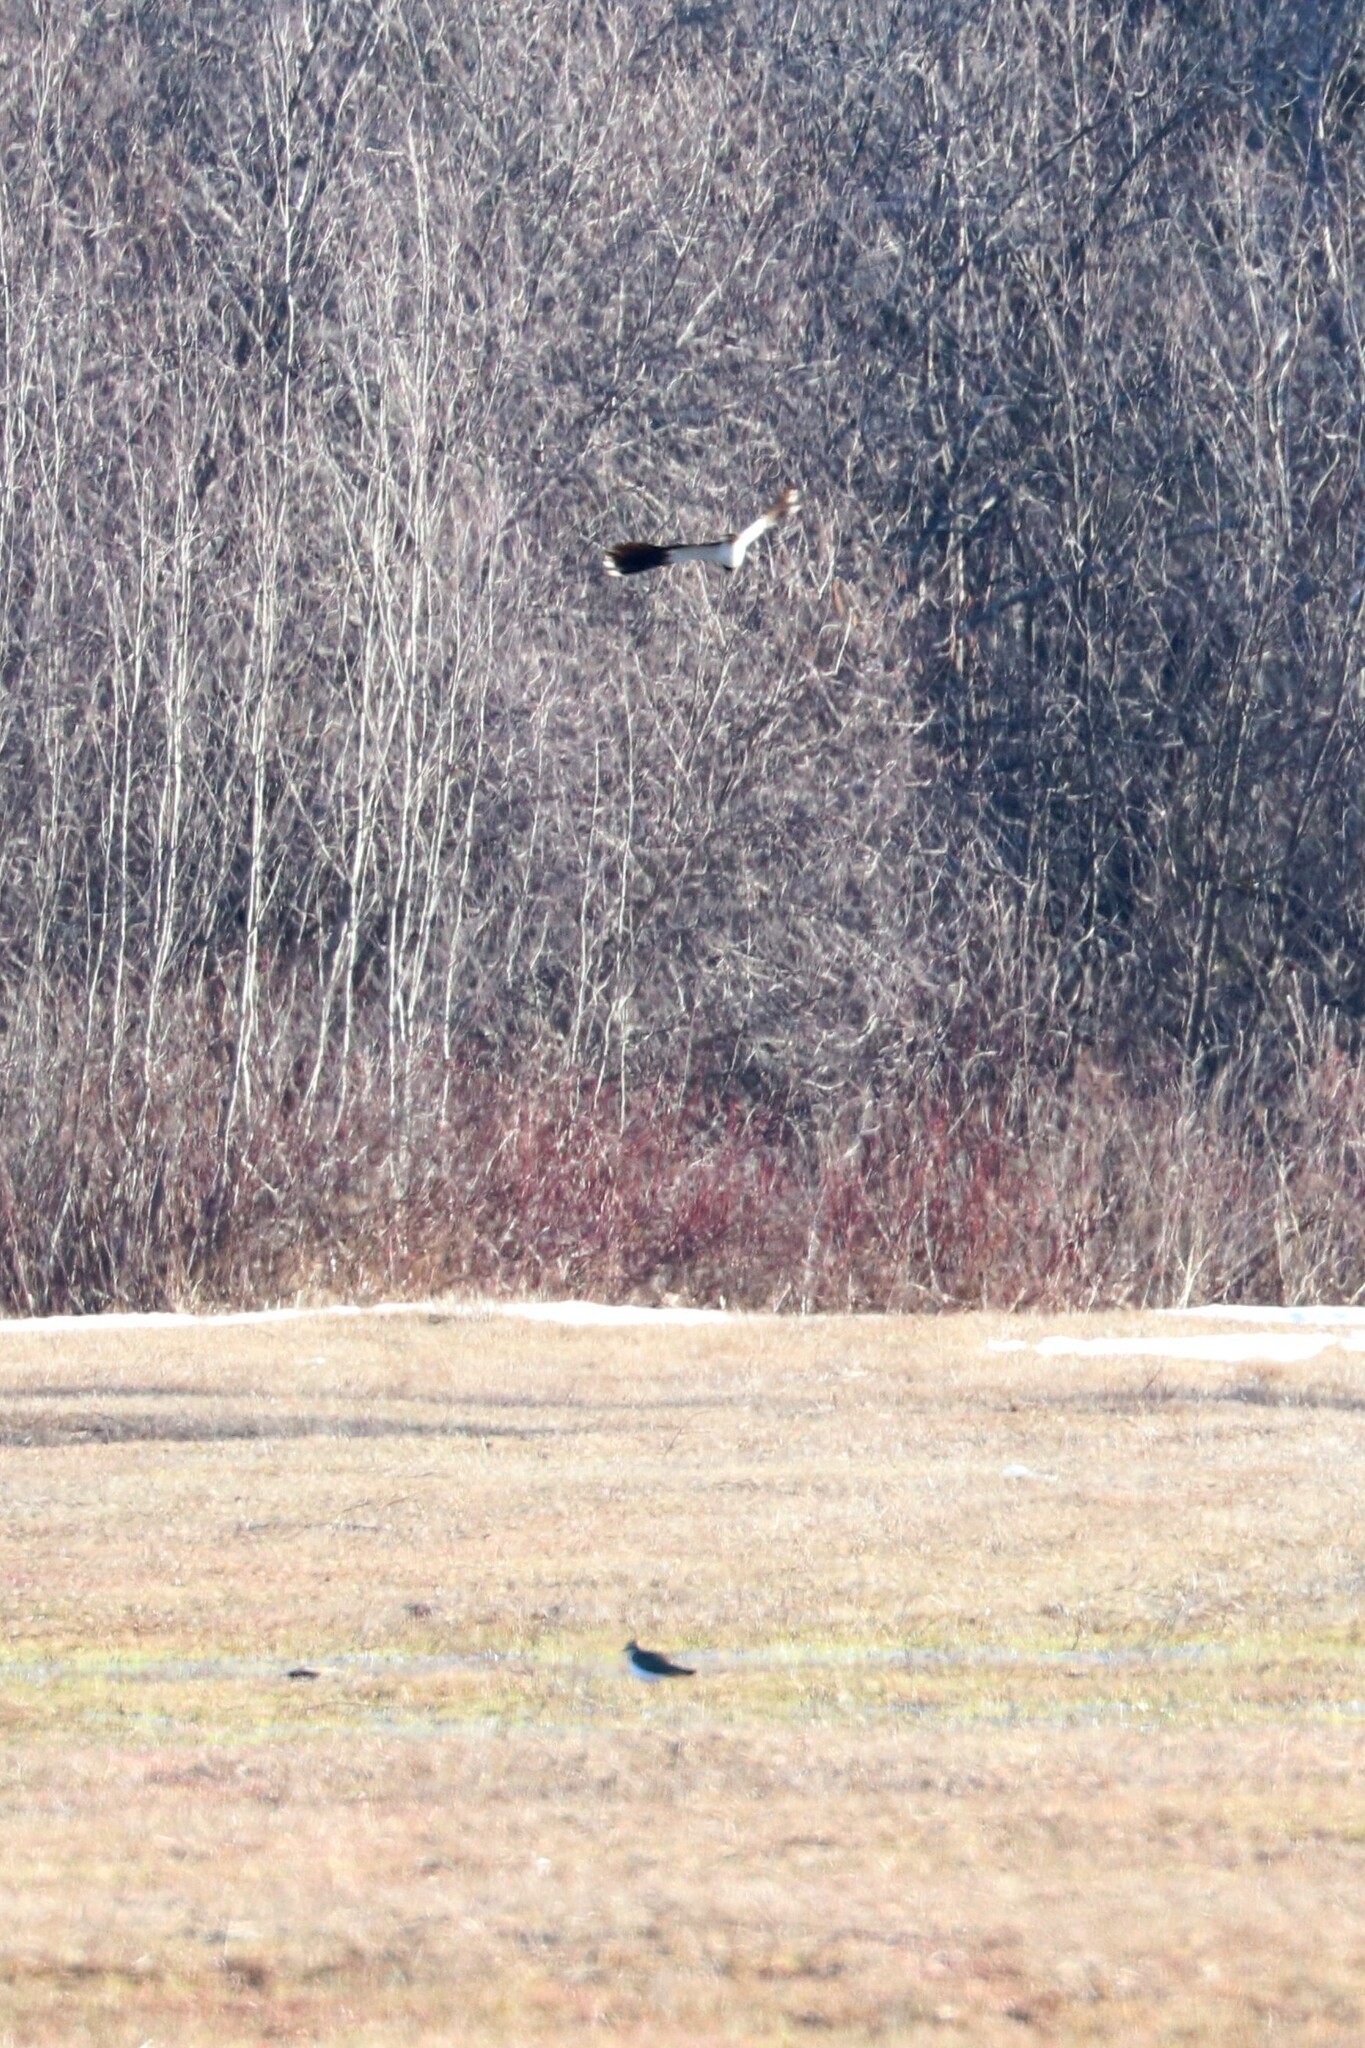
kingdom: Animalia
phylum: Chordata
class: Aves
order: Charadriiformes
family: Charadriidae
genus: Vanellus
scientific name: Vanellus vanellus
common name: Northern lapwing
